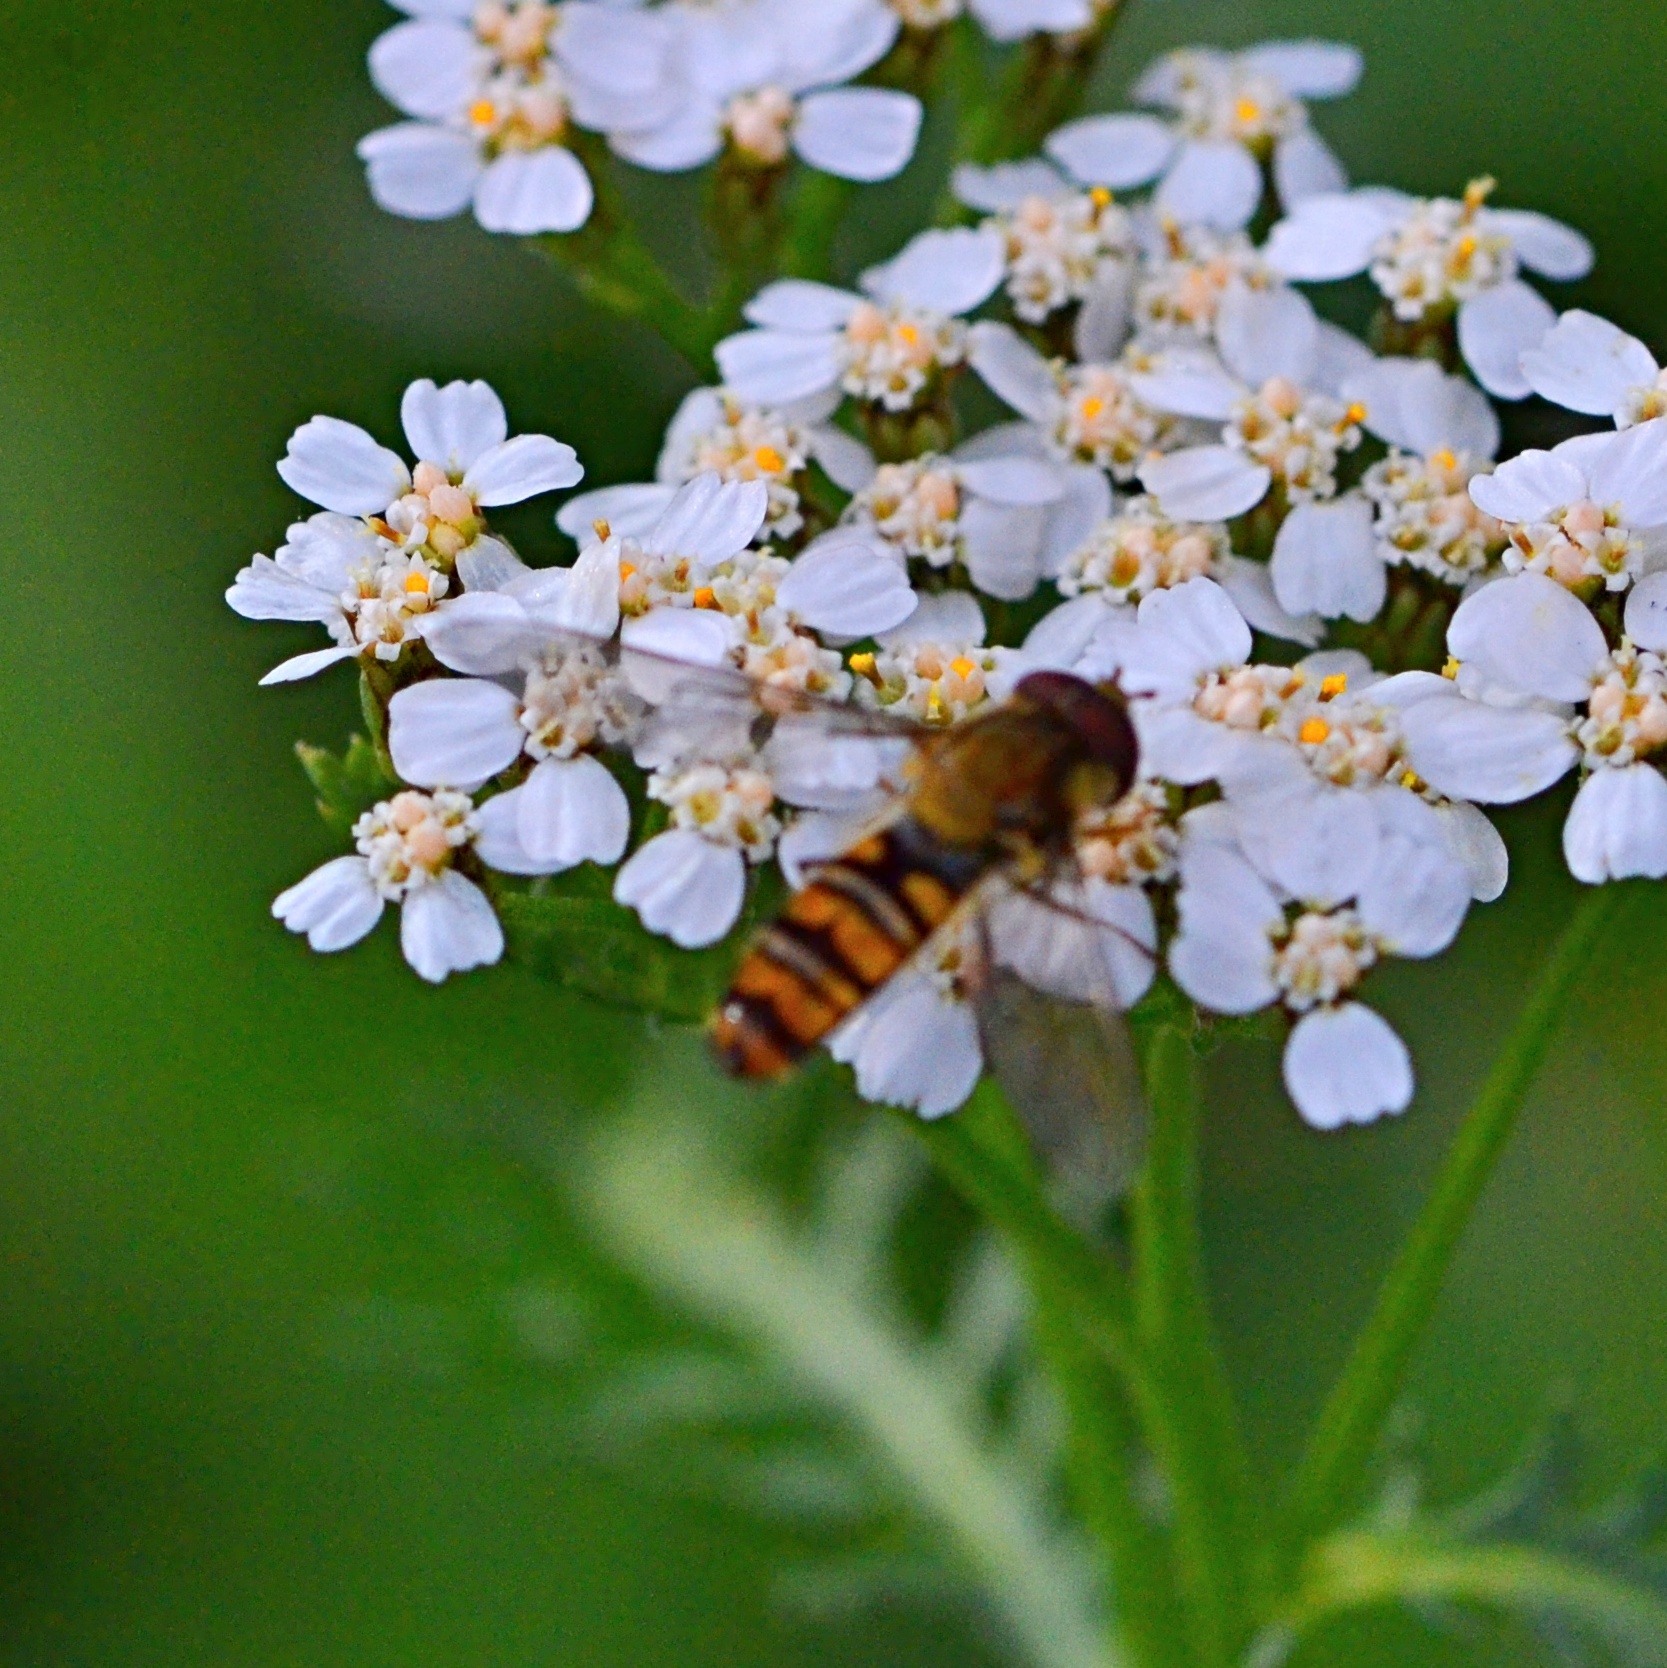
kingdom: Animalia
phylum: Arthropoda
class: Insecta
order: Diptera
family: Syrphidae
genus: Episyrphus
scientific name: Episyrphus balteatus
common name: Marmalade hoverfly
